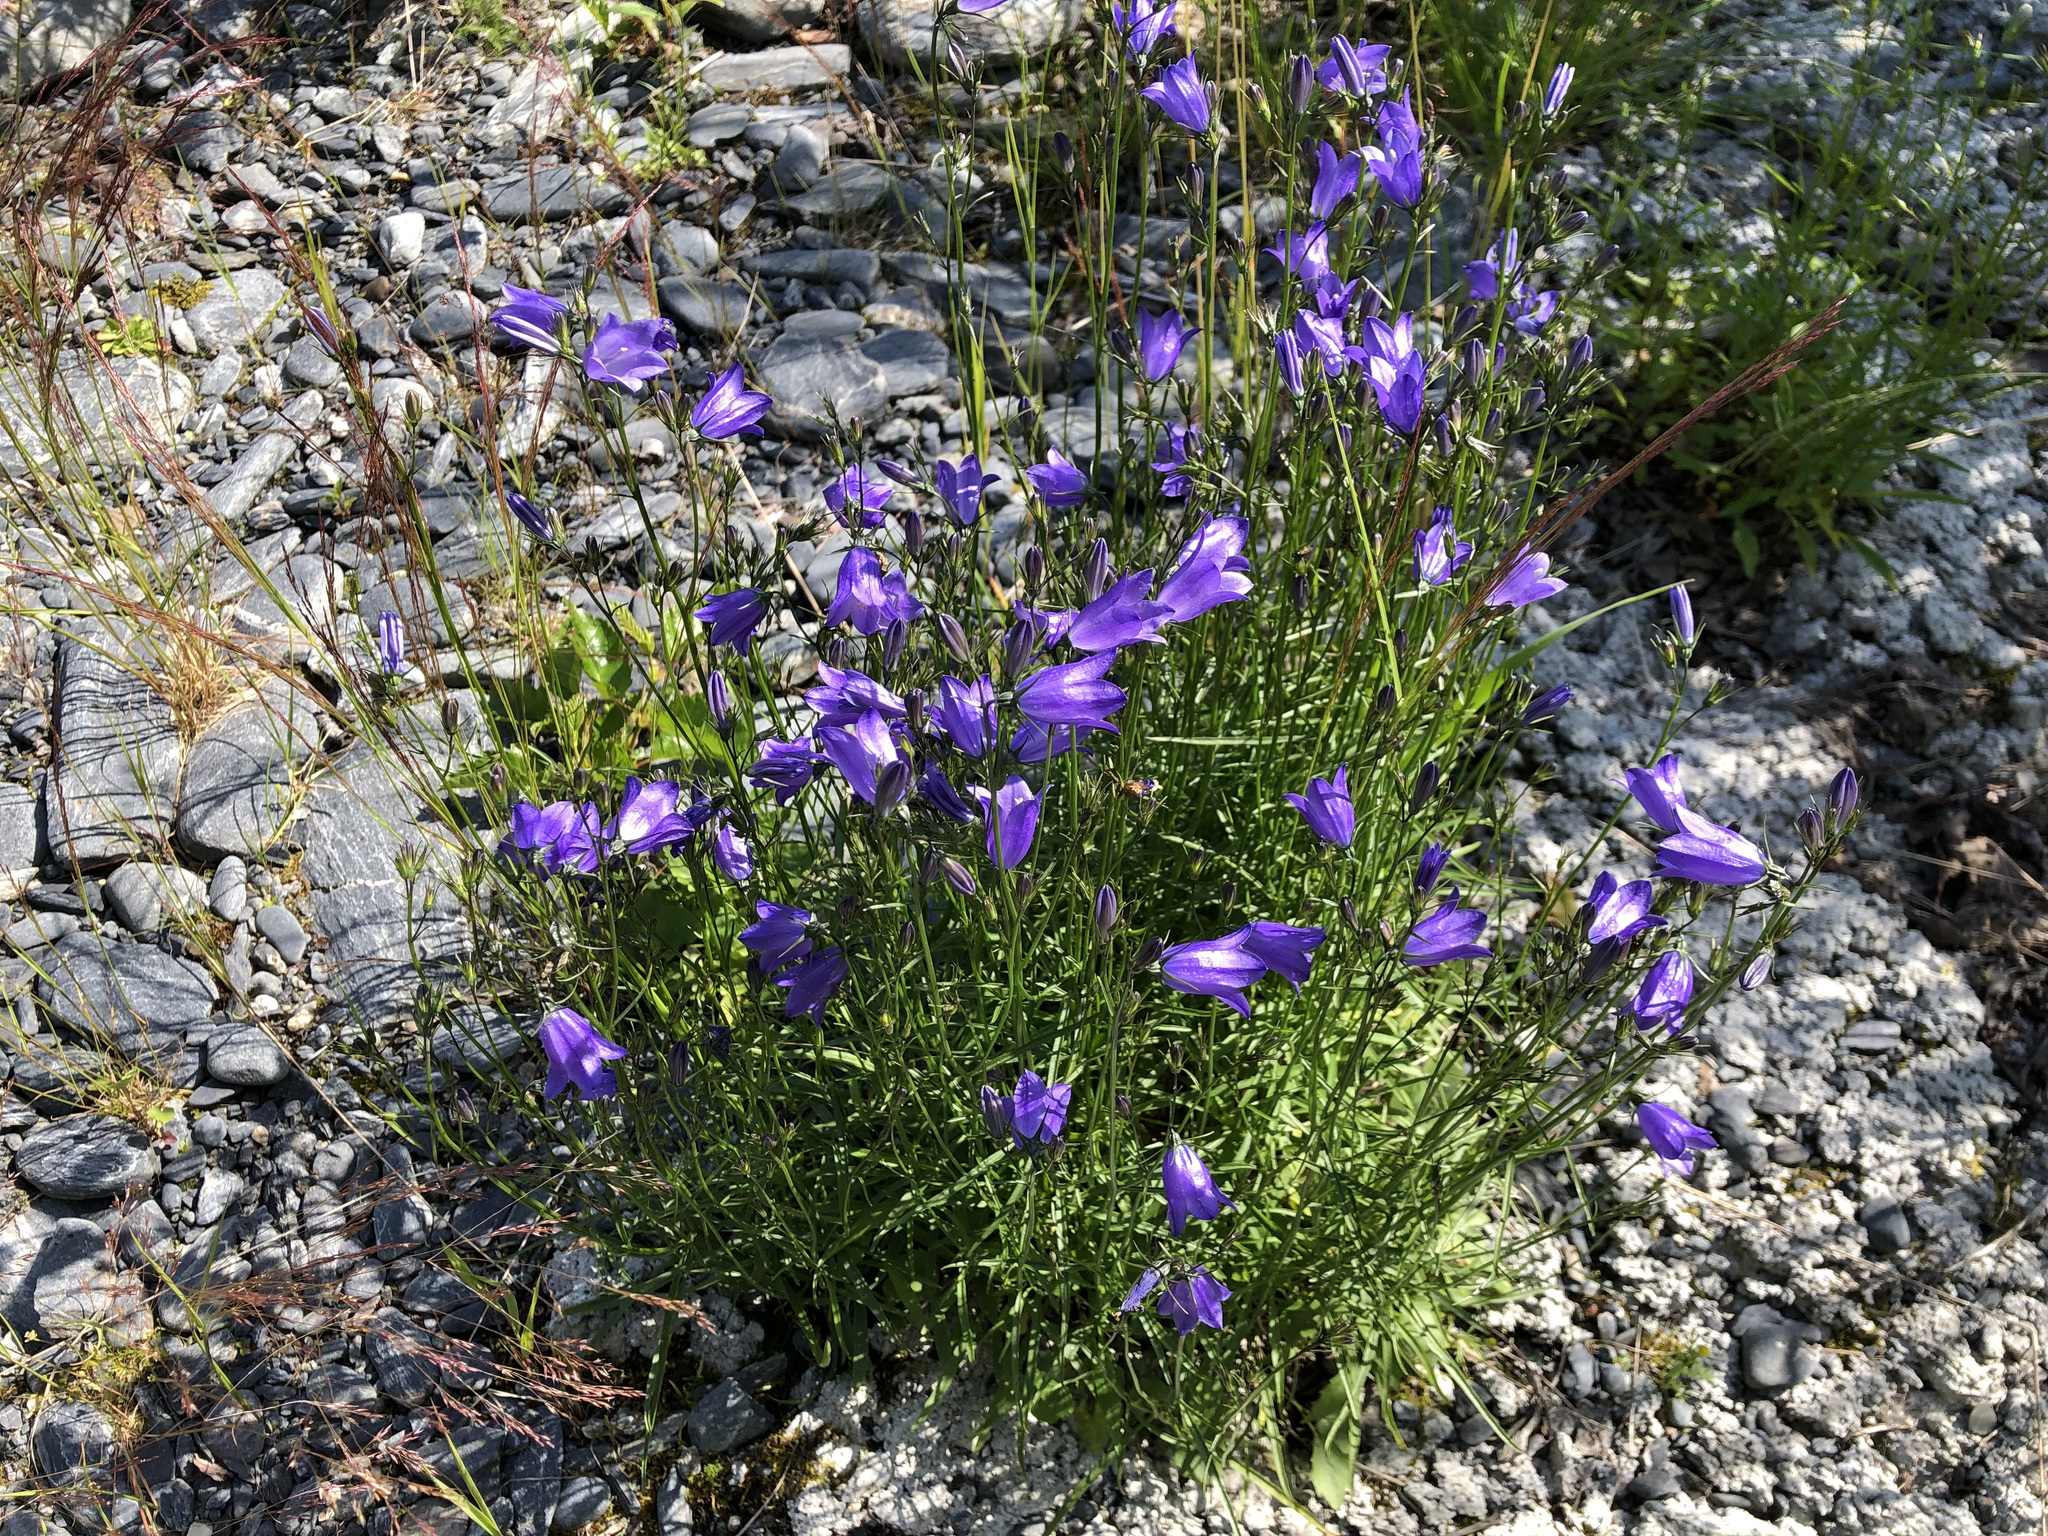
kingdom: Plantae
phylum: Tracheophyta
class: Magnoliopsida
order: Asterales
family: Campanulaceae
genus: Campanula
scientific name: Campanula alaskana
